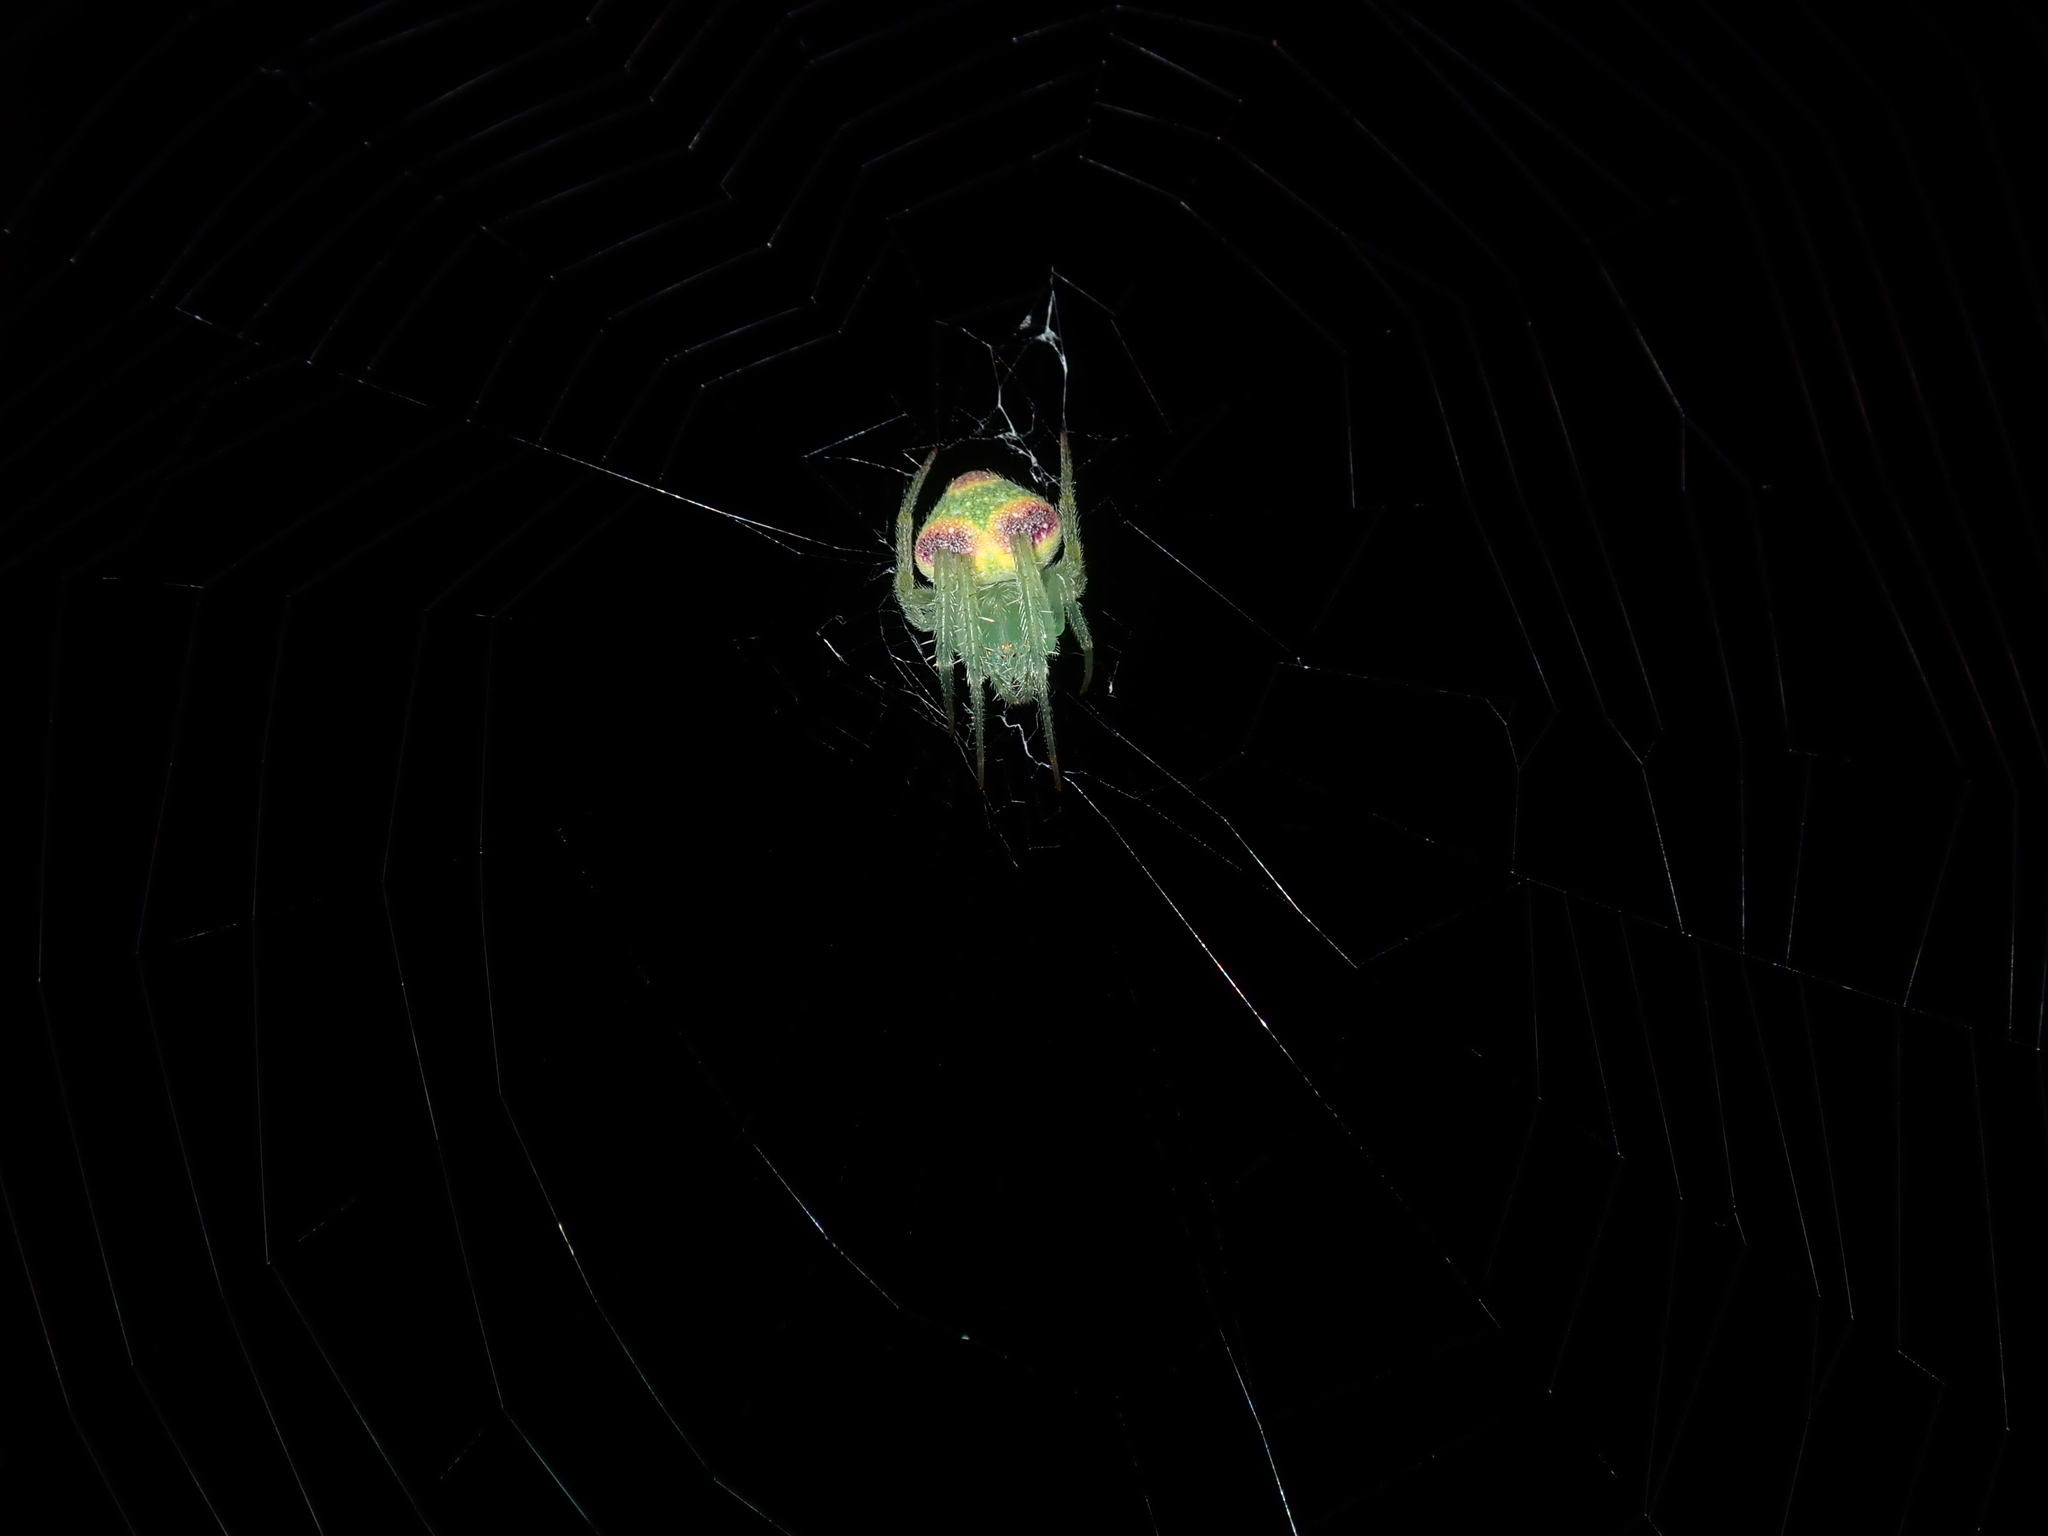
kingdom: Animalia
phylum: Arthropoda
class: Arachnida
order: Araneae
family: Araneidae
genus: Araneus
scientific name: Araneus circulissparsus
